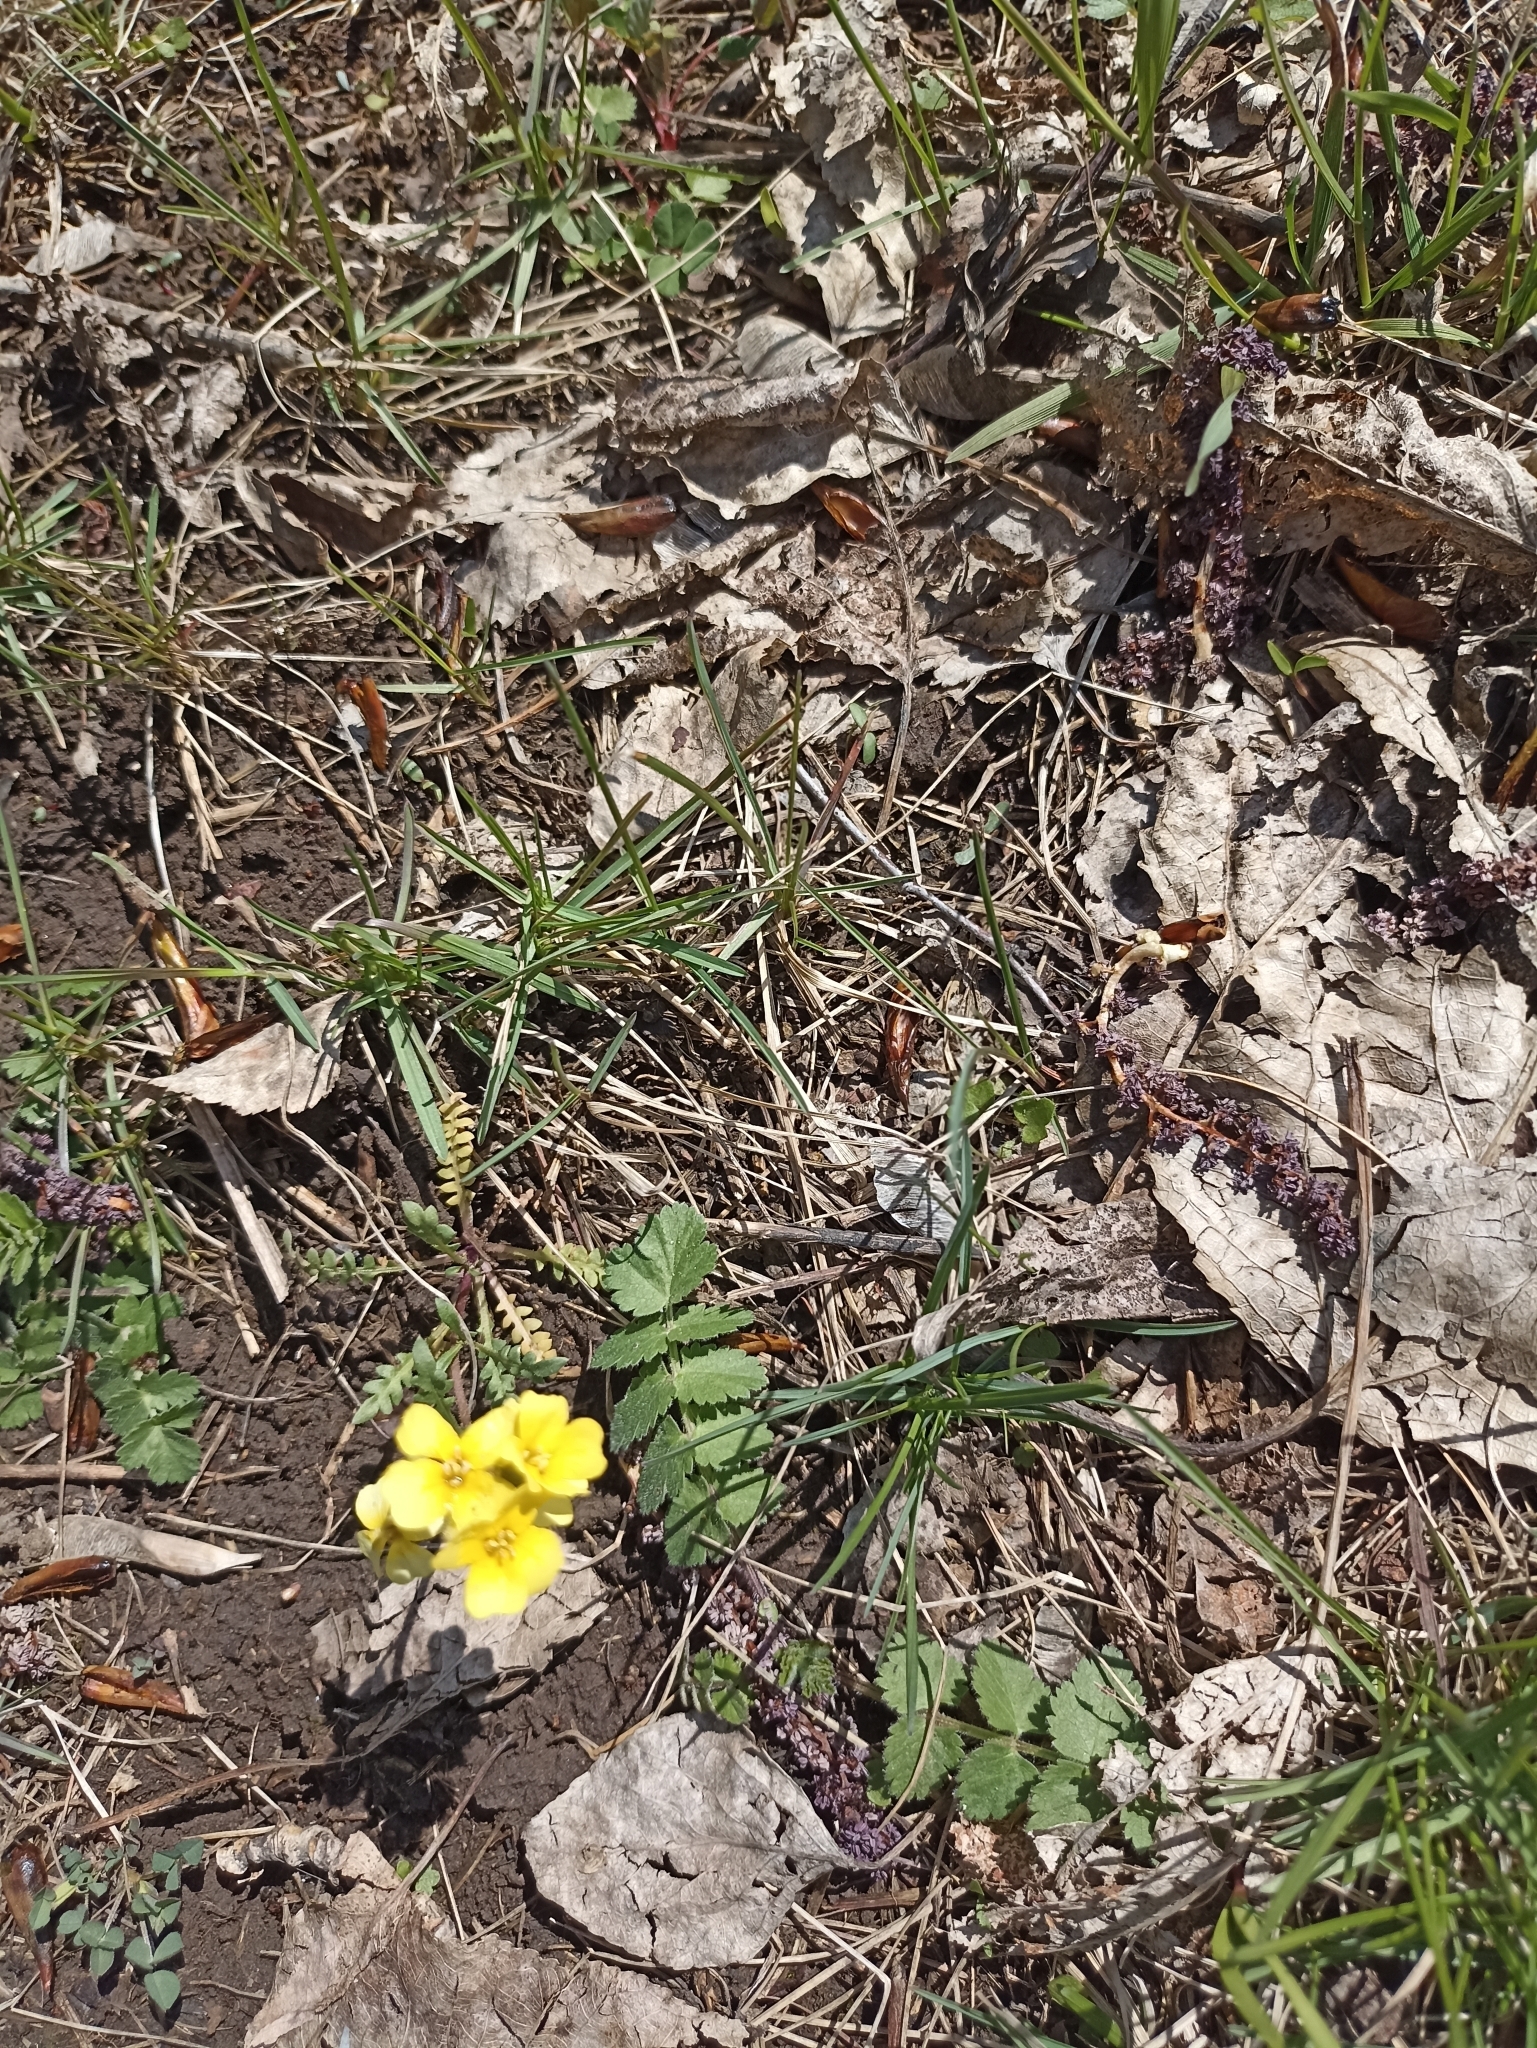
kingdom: Plantae
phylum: Tracheophyta
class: Magnoliopsida
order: Brassicales
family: Brassicaceae
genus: Chorispora
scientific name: Chorispora sibirica
